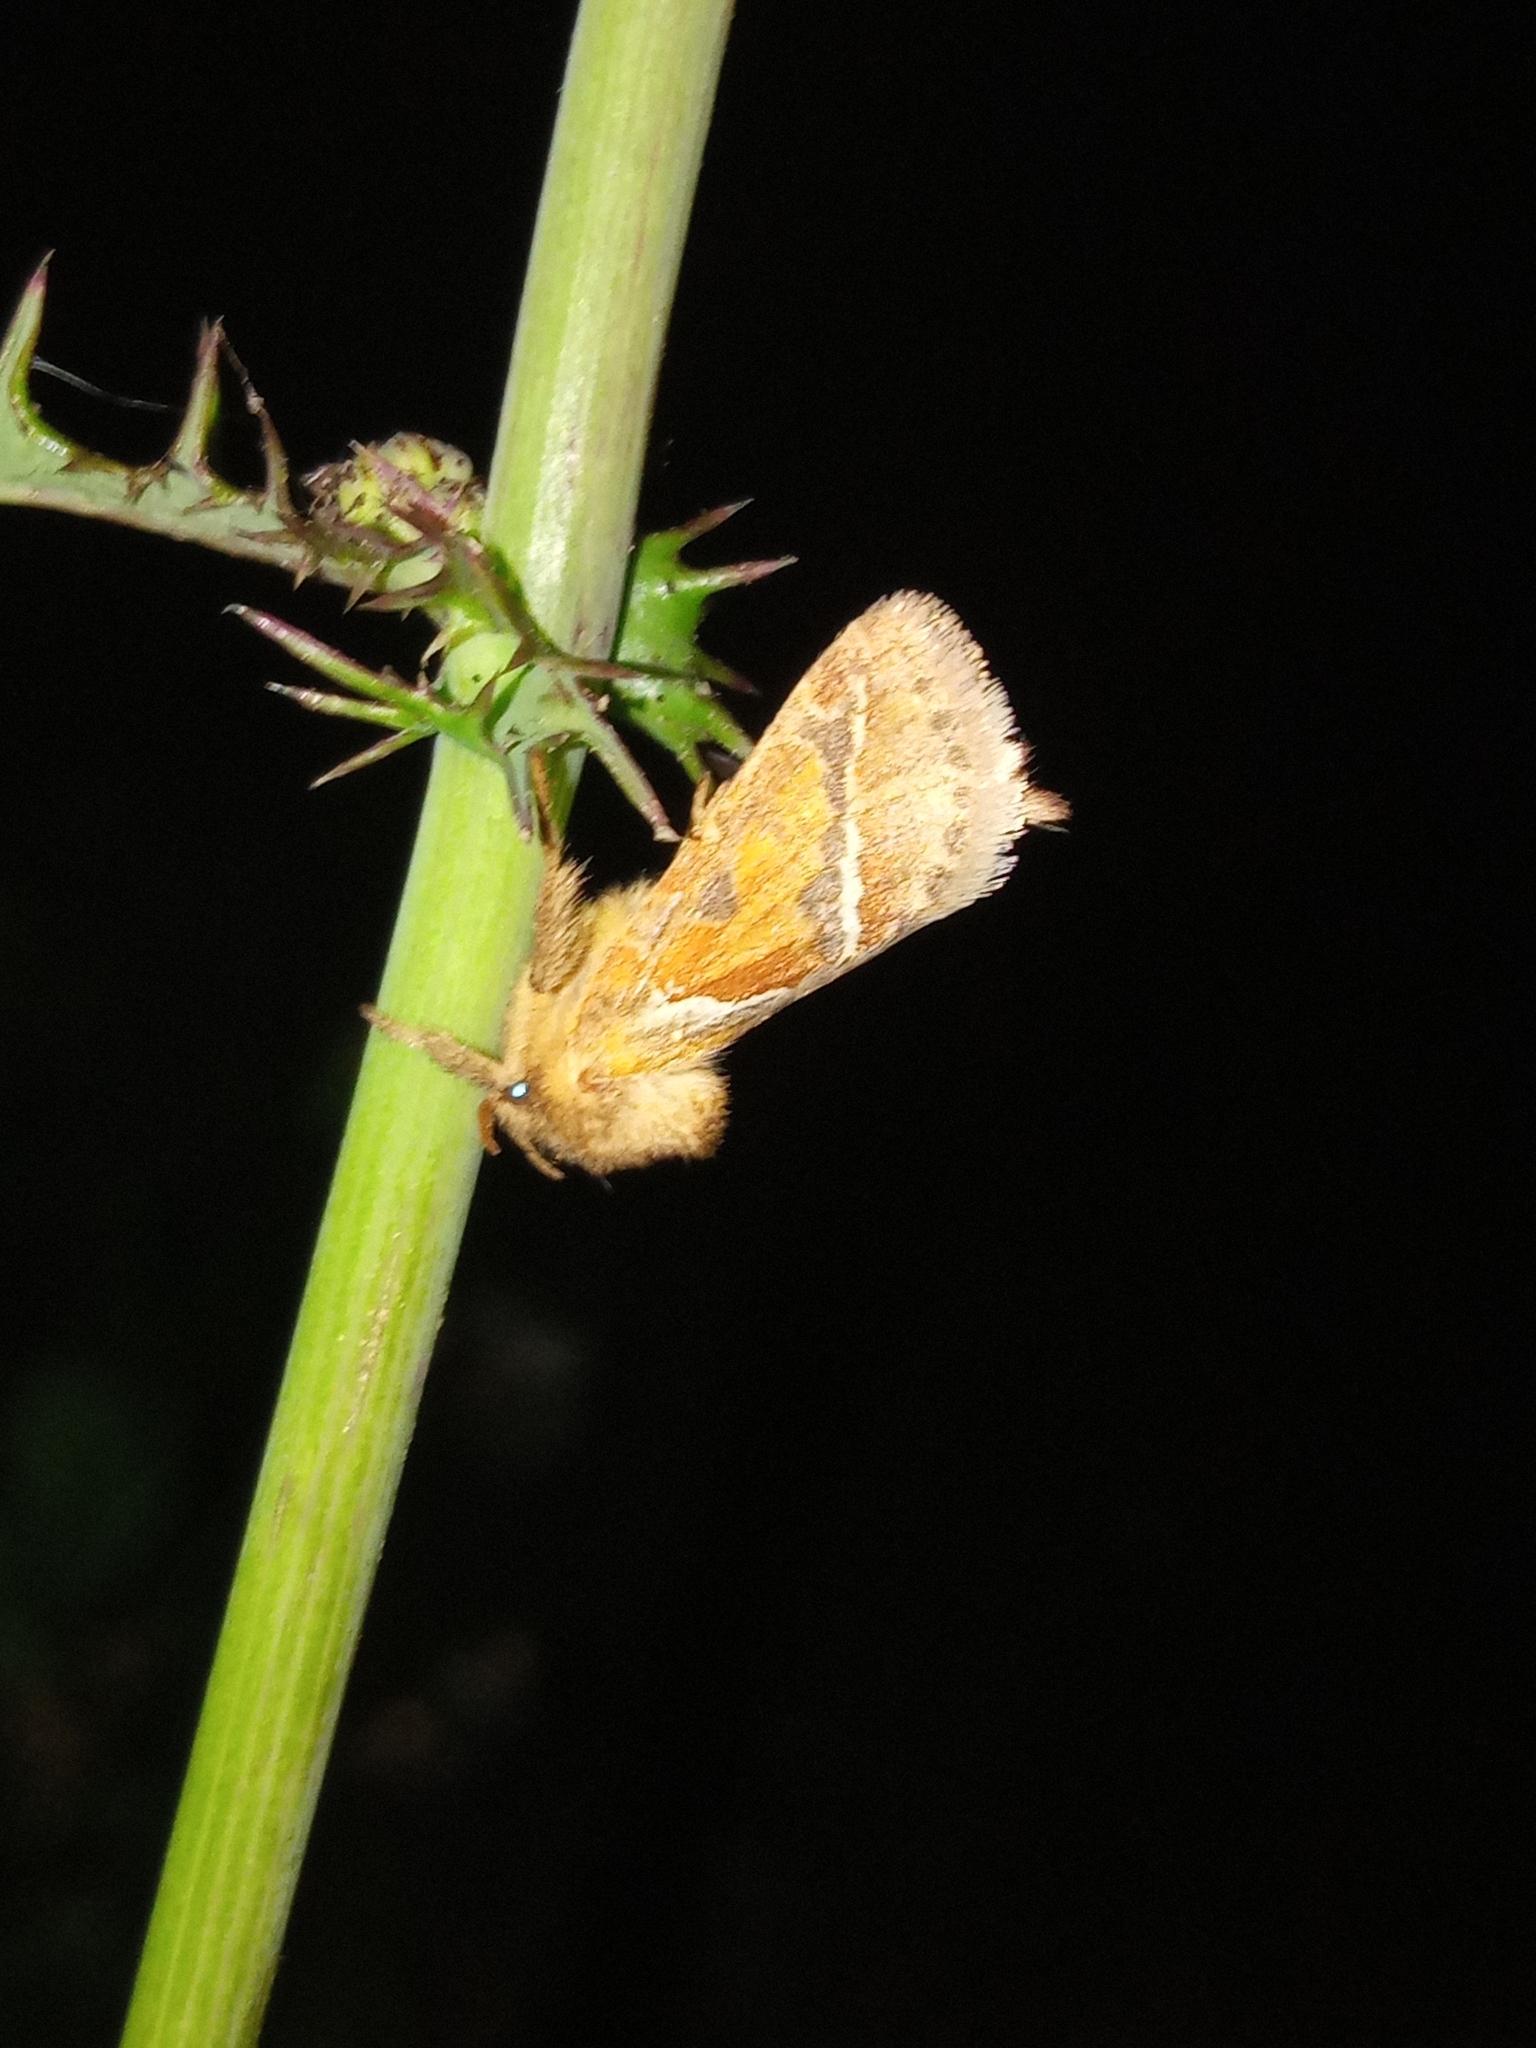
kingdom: Animalia
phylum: Arthropoda
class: Insecta
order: Lepidoptera
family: Hepialidae
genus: Triodia
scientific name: Triodia sylvina
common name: Orange swift
